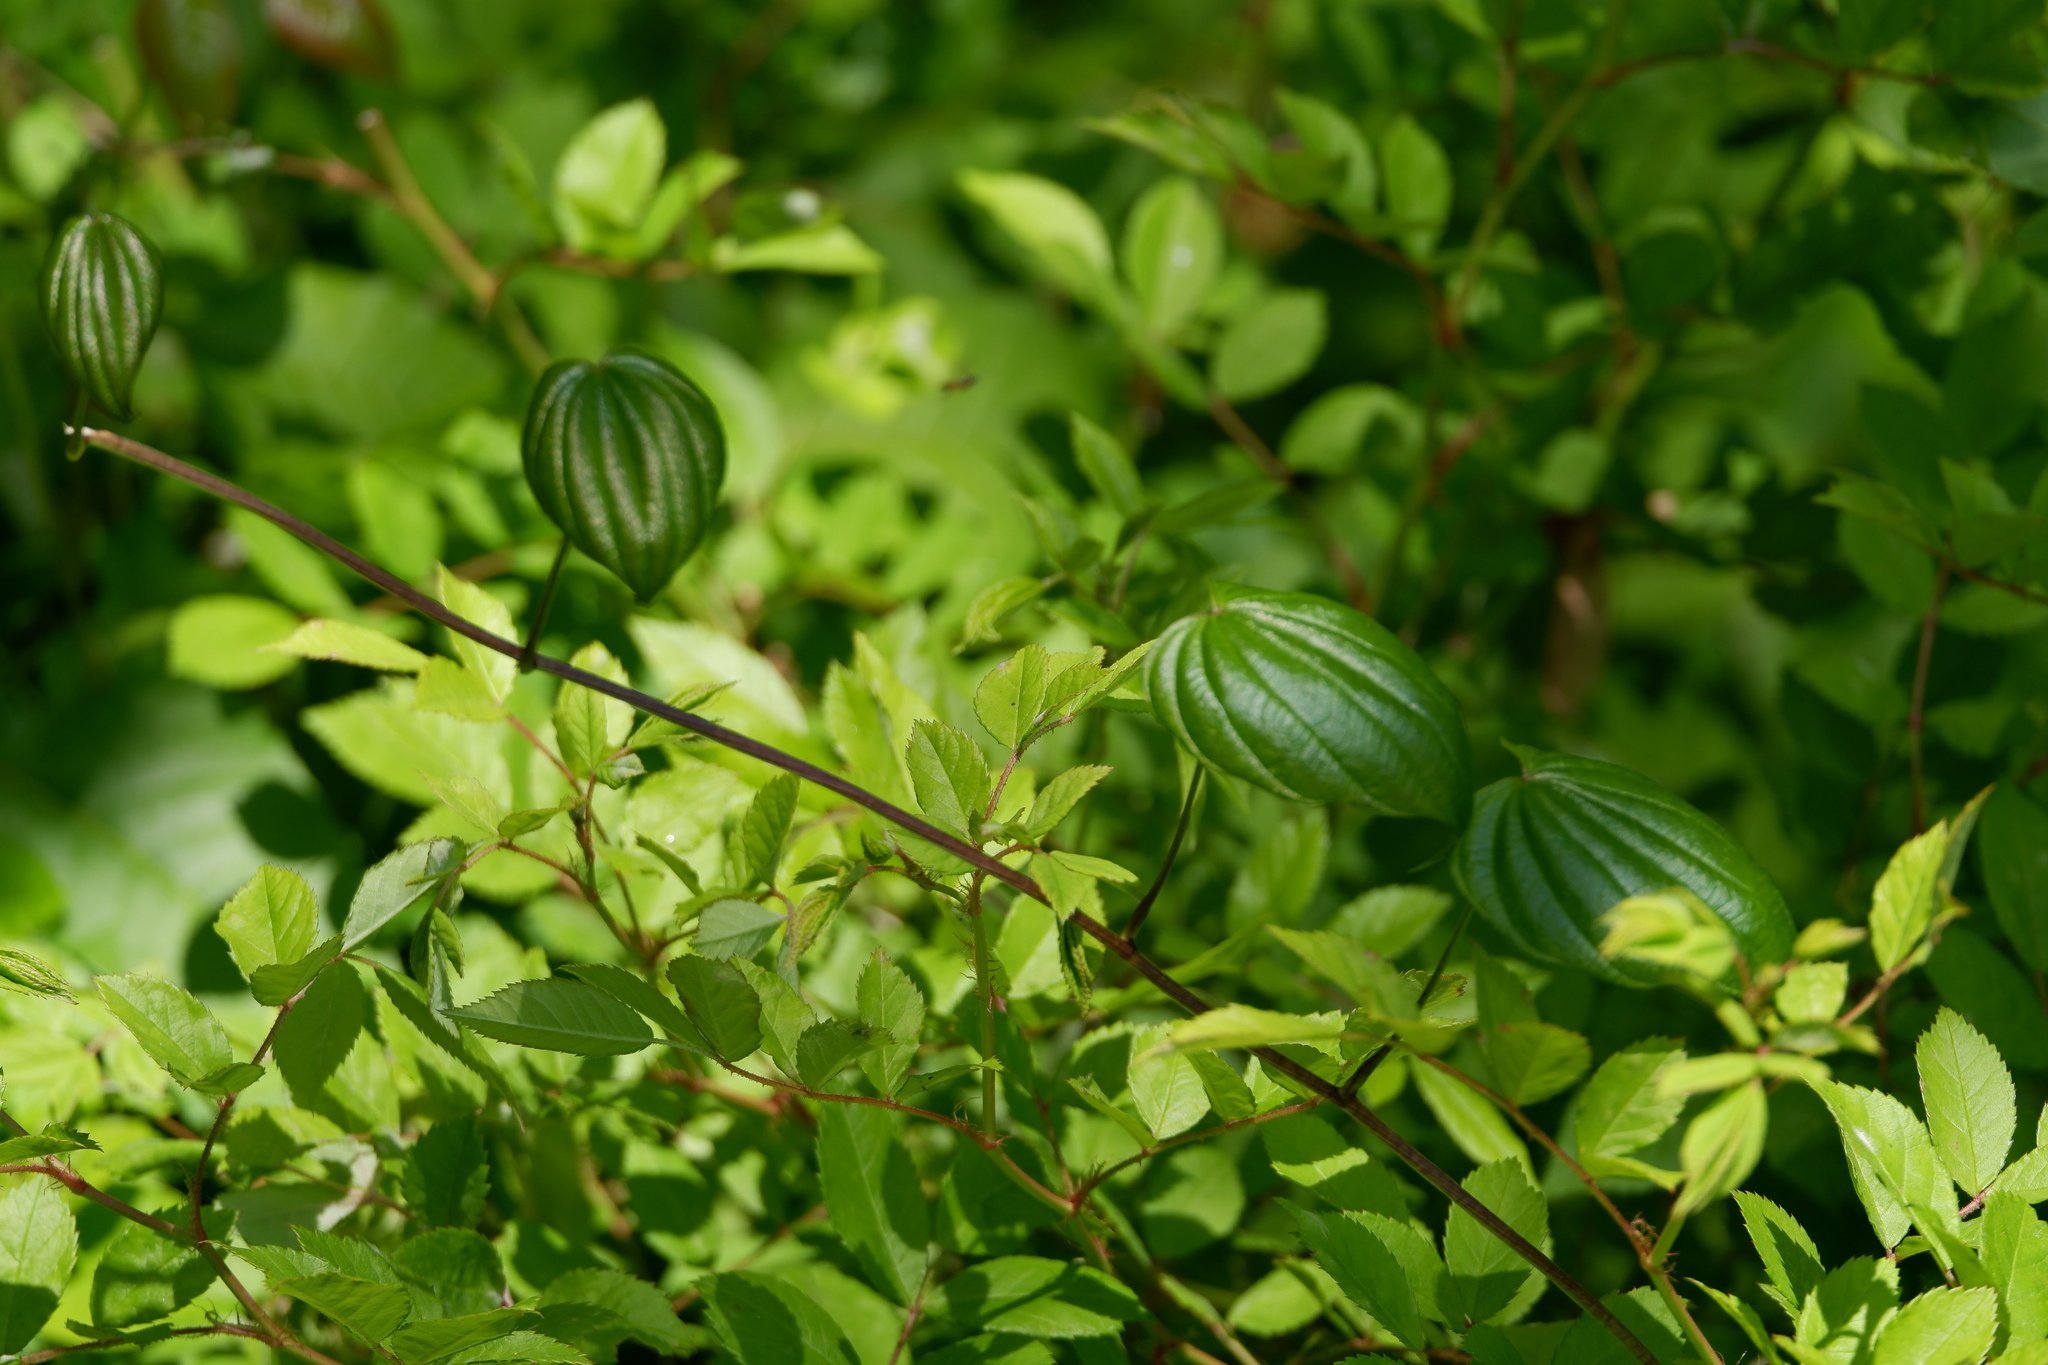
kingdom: Plantae
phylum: Tracheophyta
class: Liliopsida
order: Dioscoreales
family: Dioscoreaceae
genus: Dioscorea
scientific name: Dioscorea villosa
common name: Wild yam
